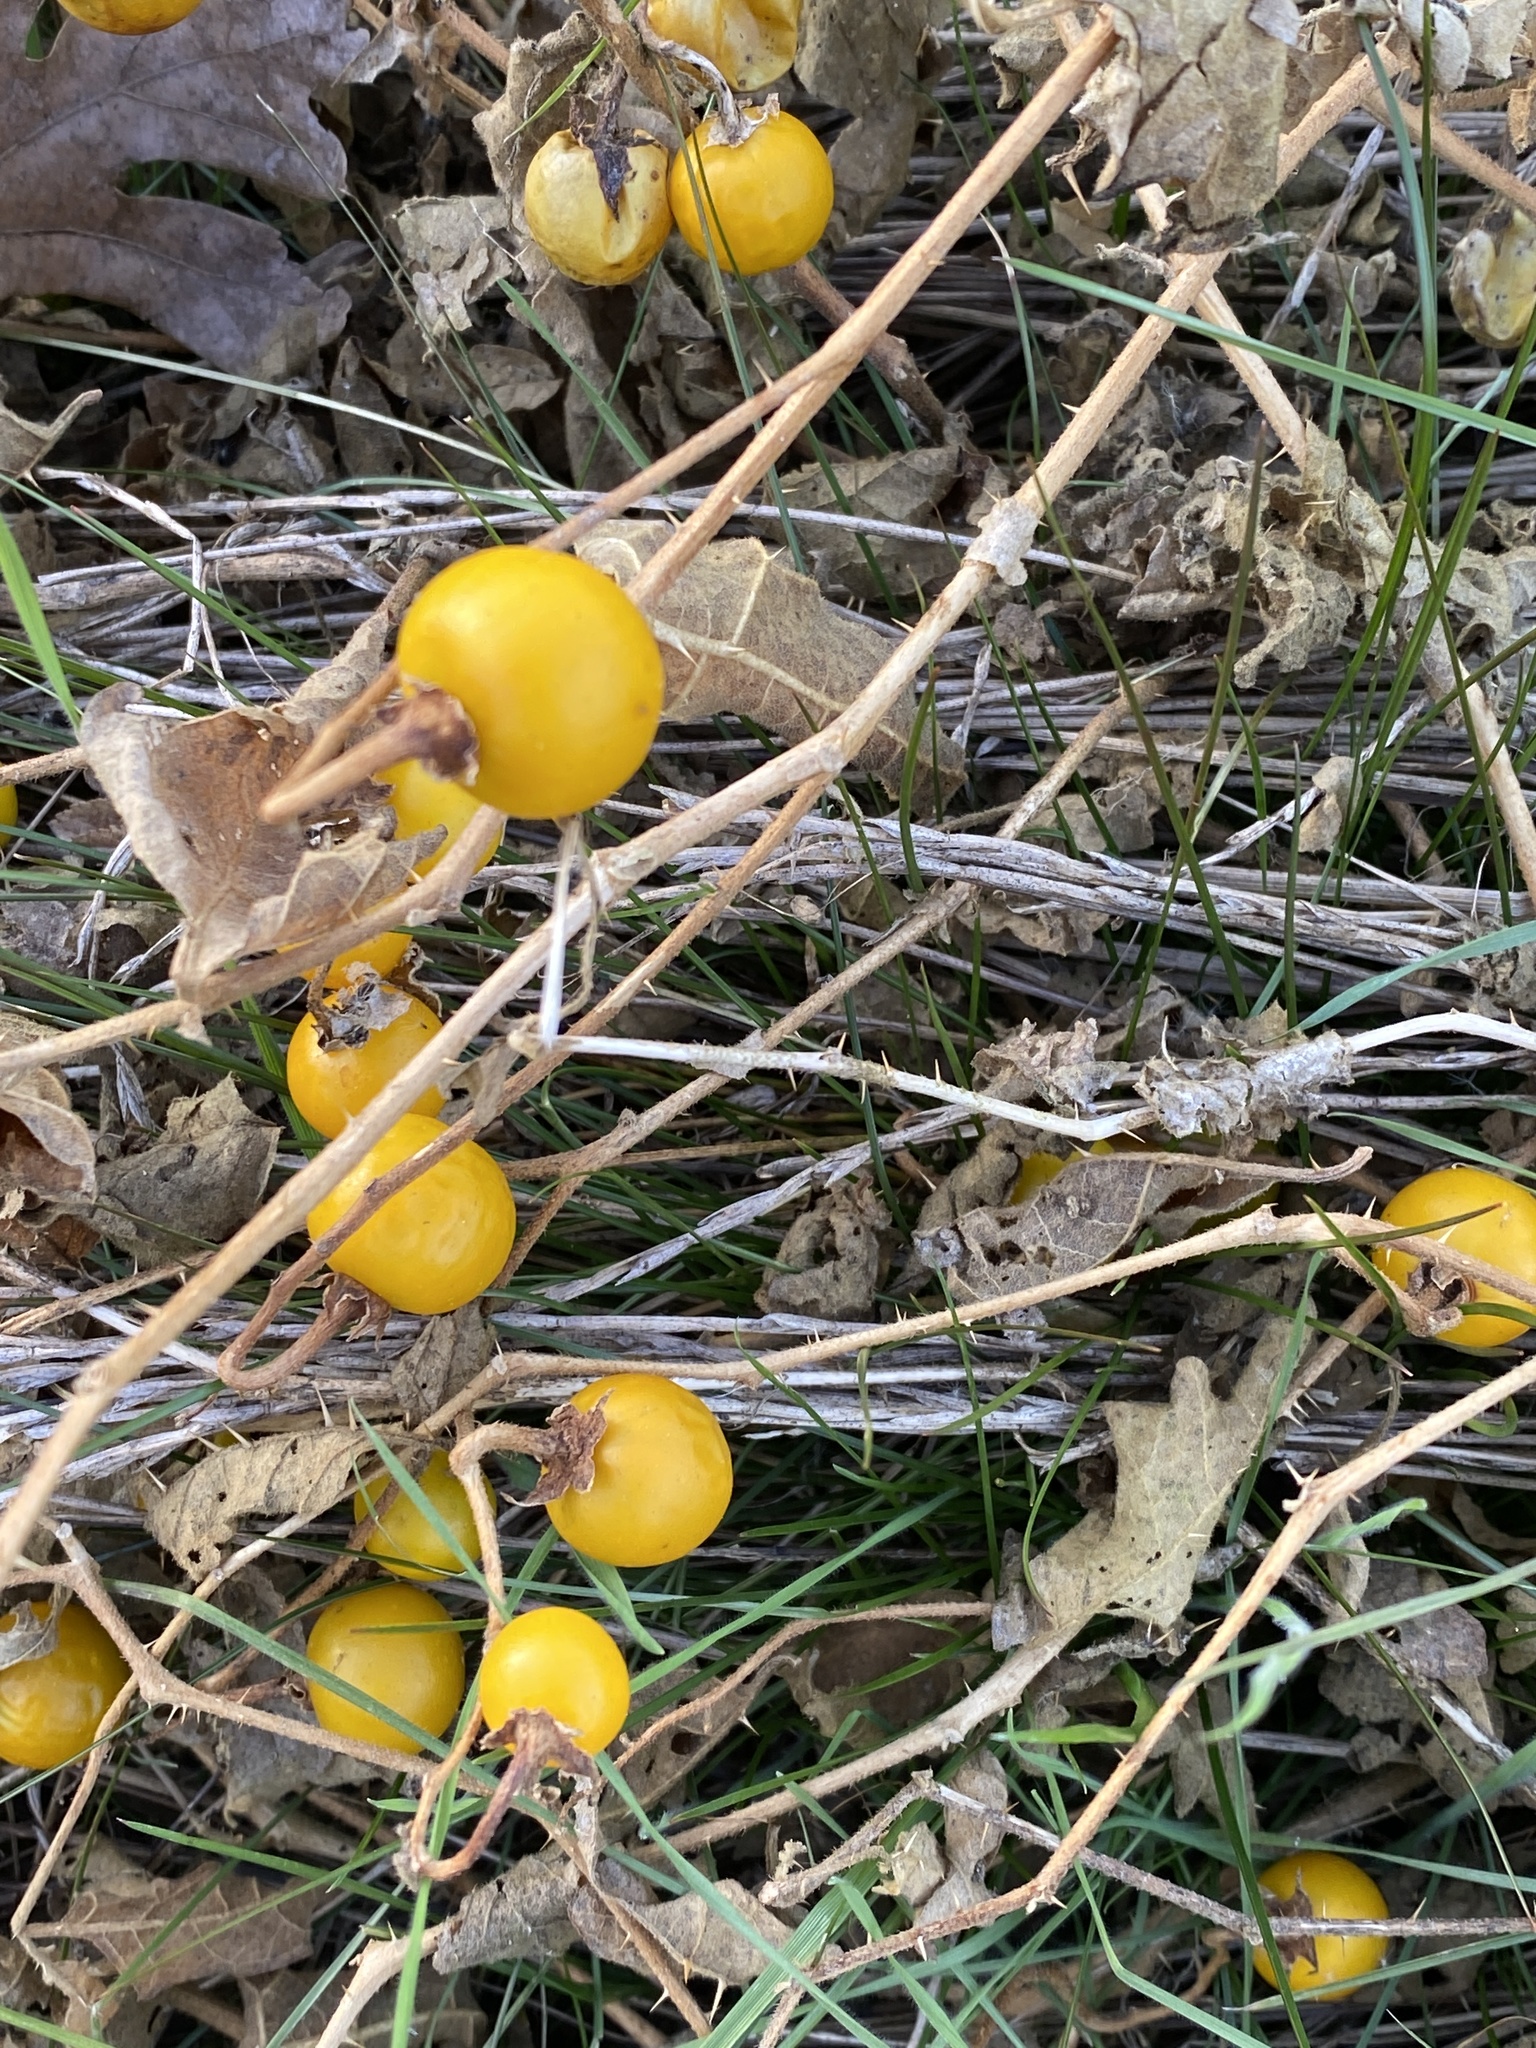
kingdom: Plantae
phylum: Tracheophyta
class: Magnoliopsida
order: Solanales
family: Solanaceae
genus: Solanum
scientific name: Solanum carolinense
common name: Horse-nettle
